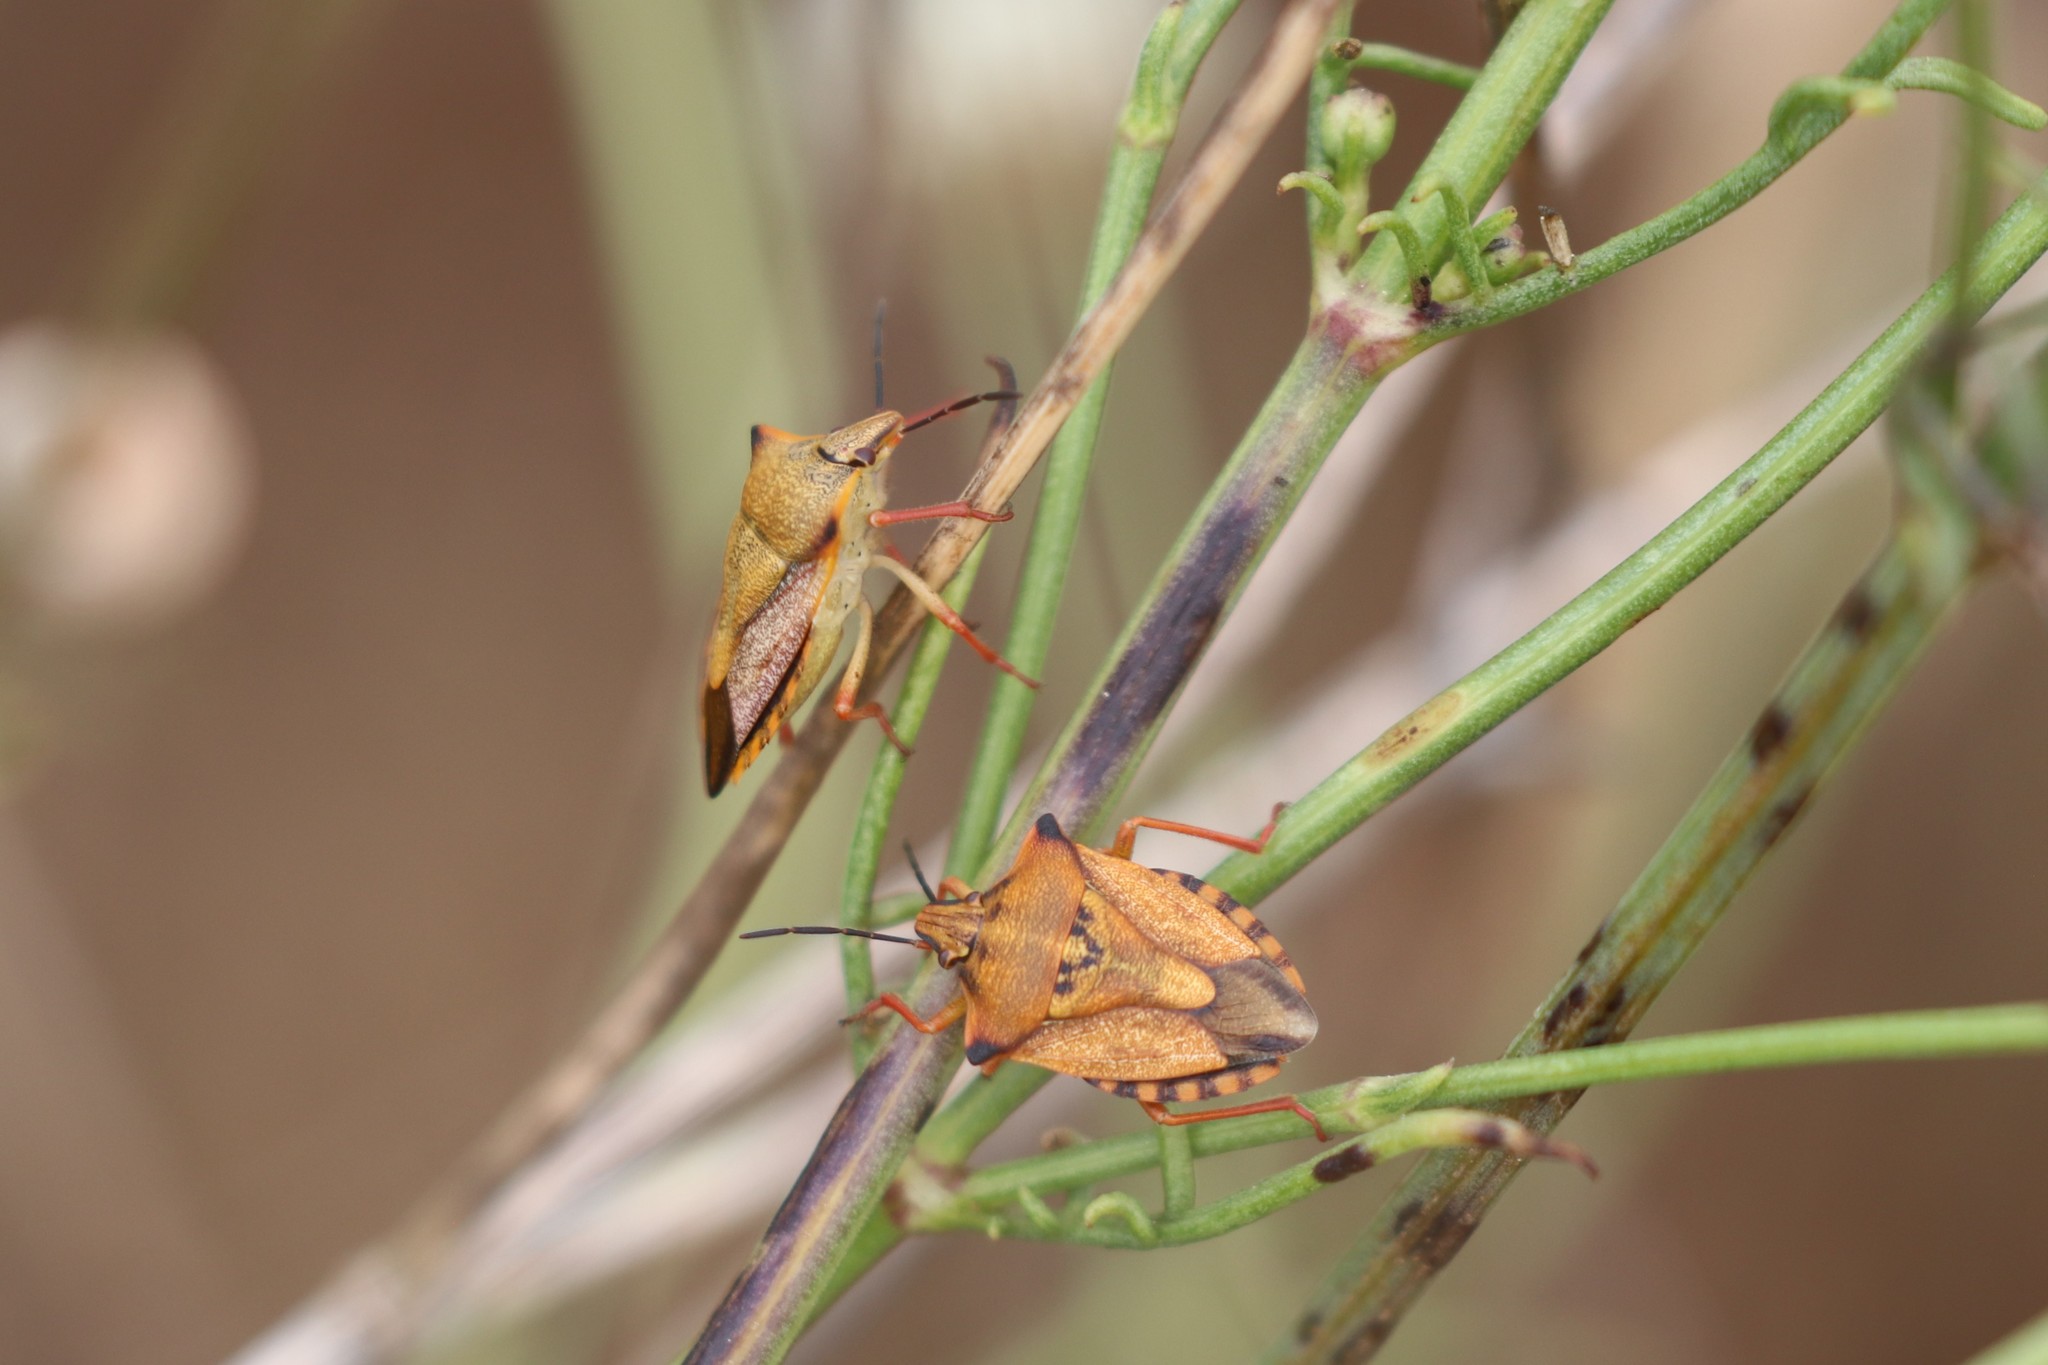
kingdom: Animalia
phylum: Arthropoda
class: Insecta
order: Hemiptera
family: Pentatomidae
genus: Carpocoris
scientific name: Carpocoris mediterraneus
